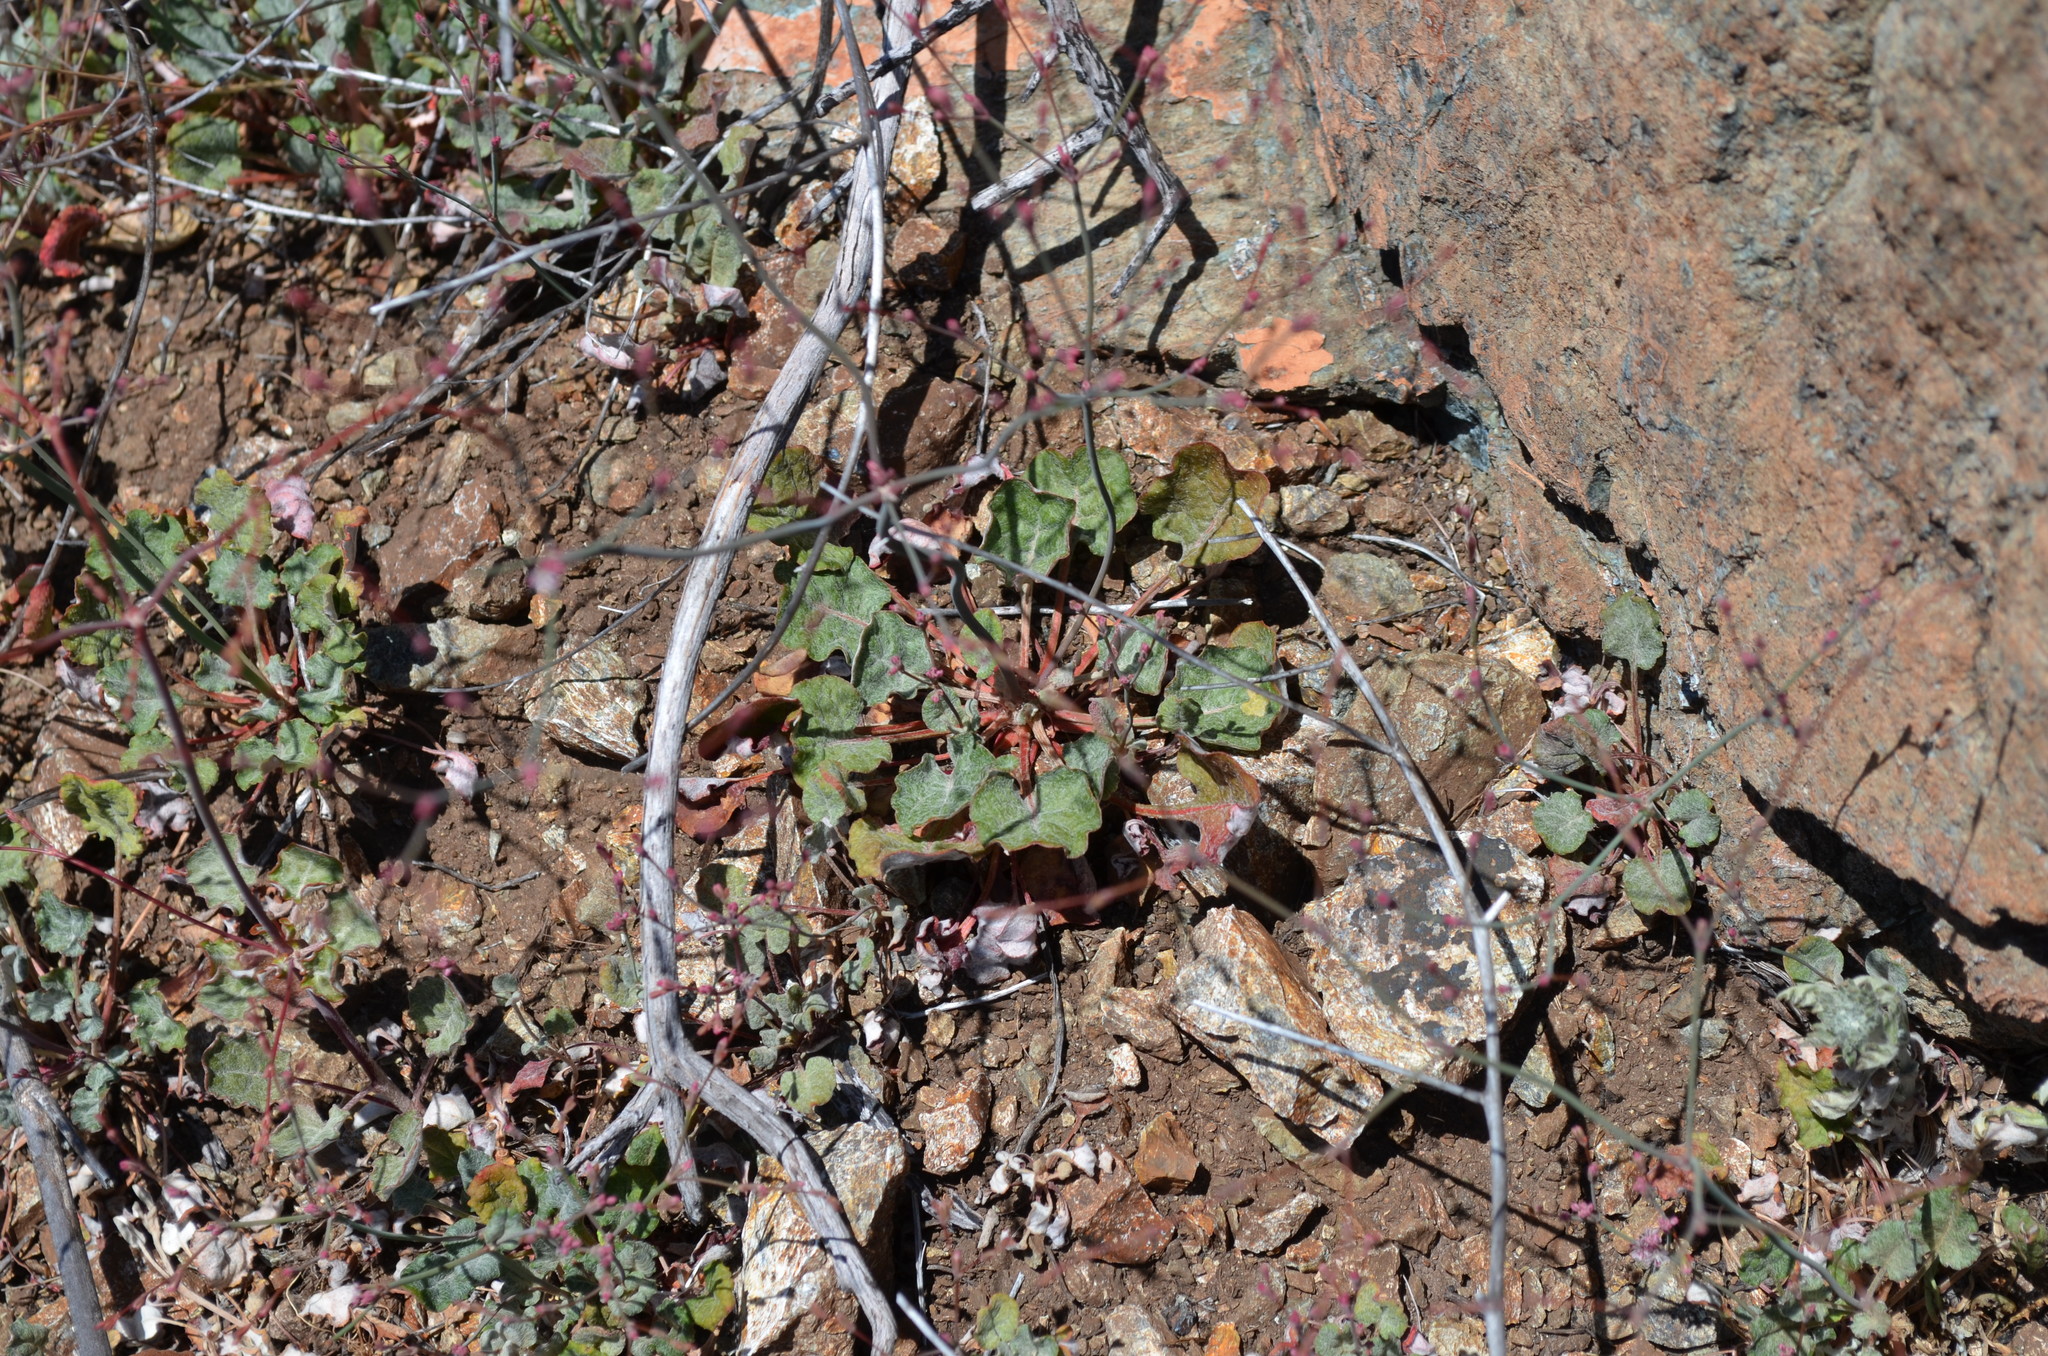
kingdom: Plantae
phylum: Tracheophyta
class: Magnoliopsida
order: Caryophyllales
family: Polygonaceae
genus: Eriogonum
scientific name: Eriogonum luteolum
